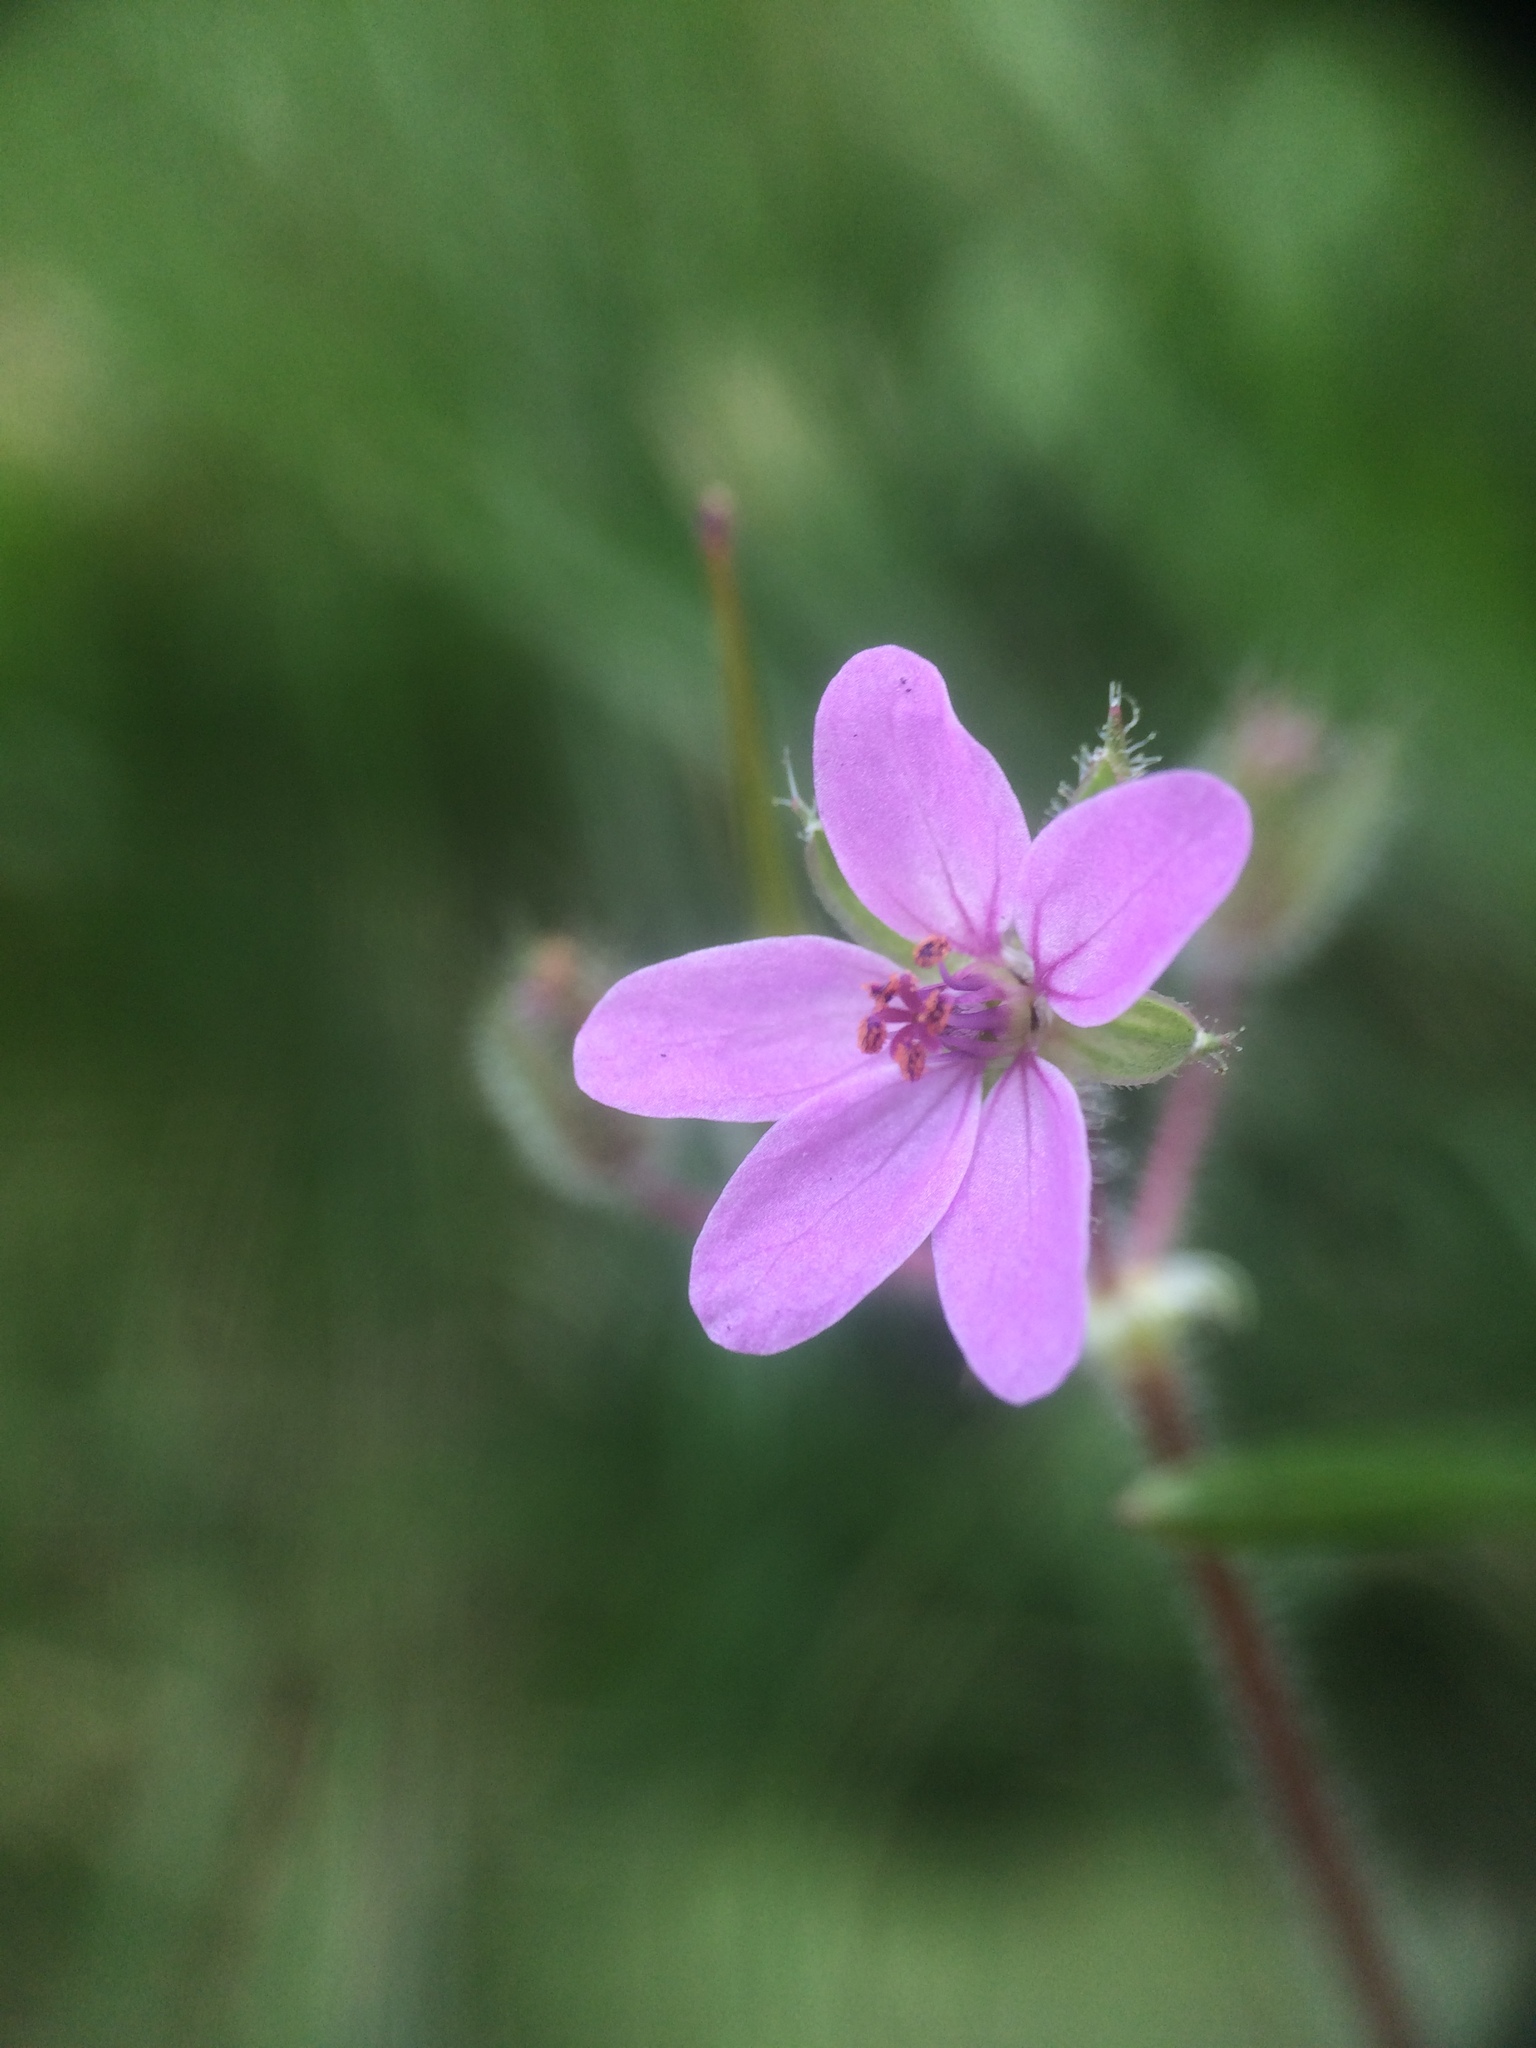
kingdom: Plantae
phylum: Tracheophyta
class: Magnoliopsida
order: Geraniales
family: Geraniaceae
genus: Erodium
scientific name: Erodium cicutarium
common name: Common stork's-bill
